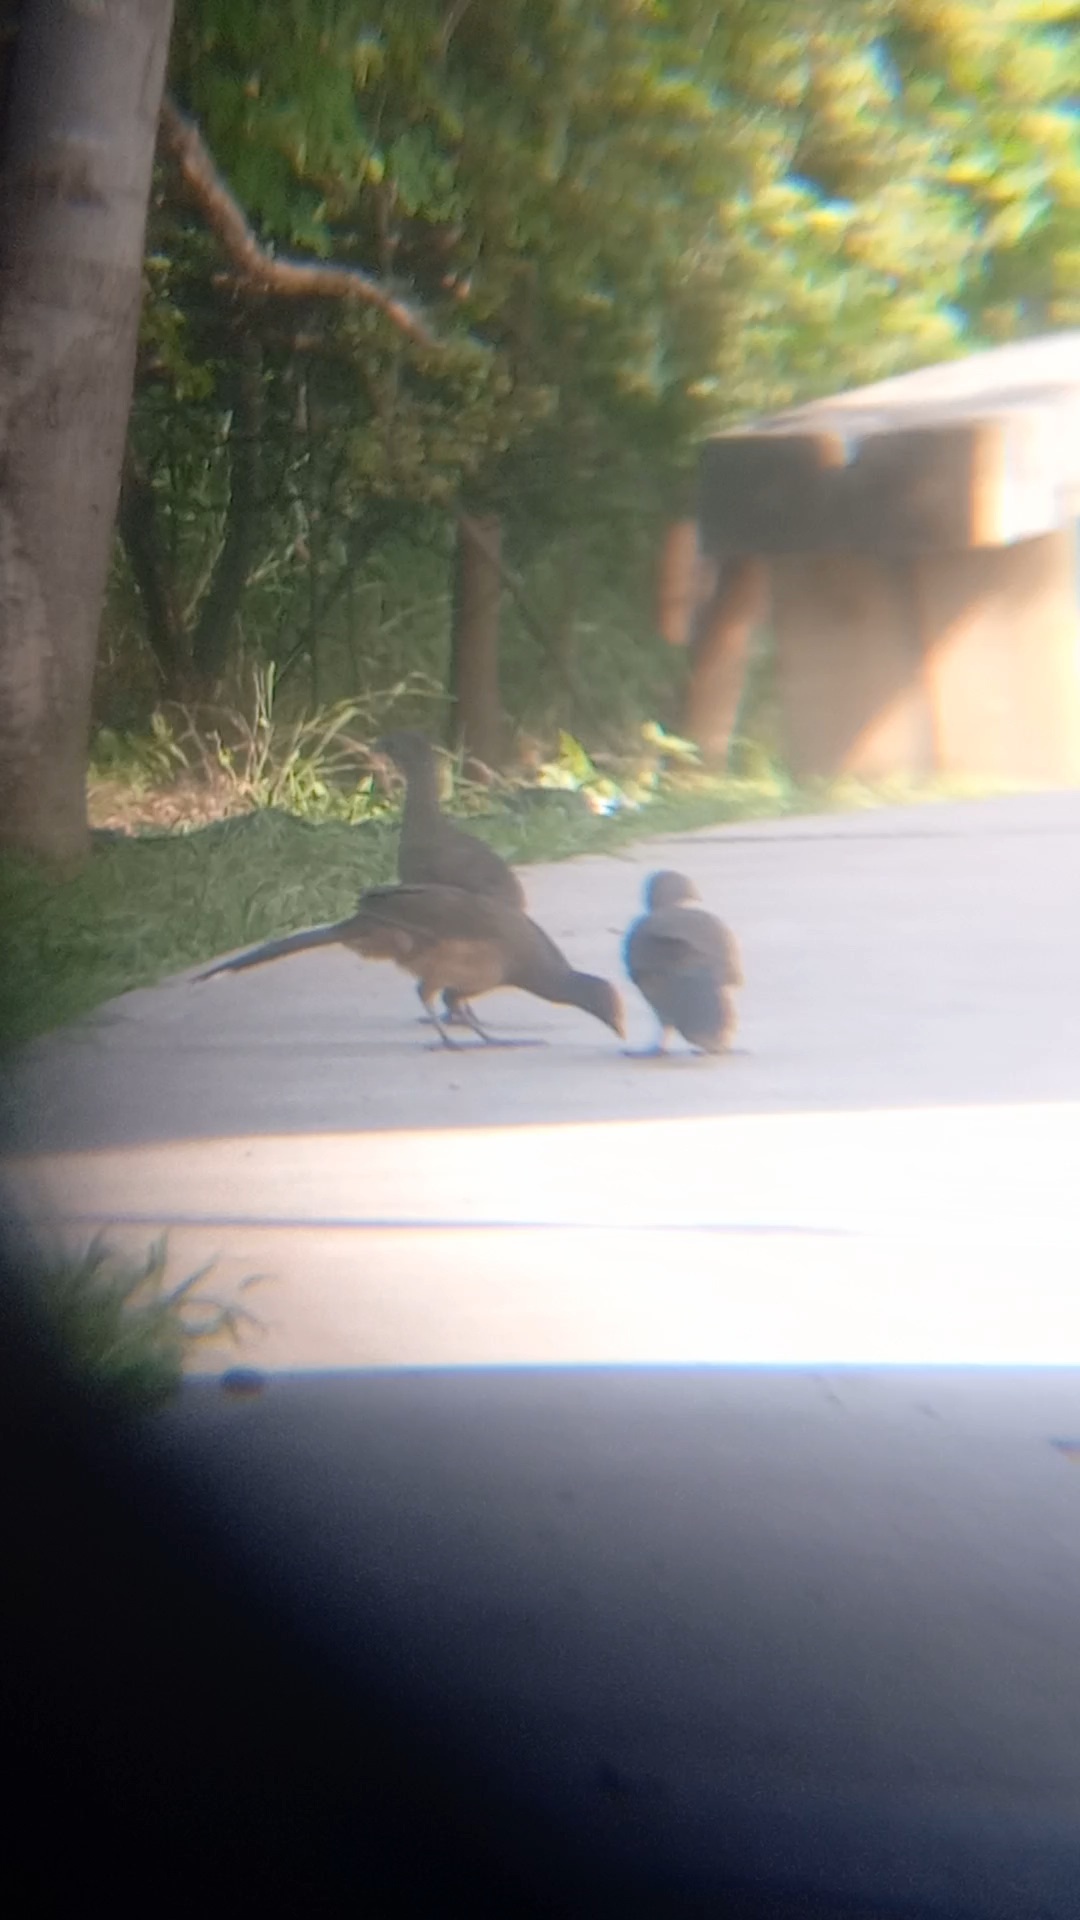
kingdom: Animalia
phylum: Chordata
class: Aves
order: Galliformes
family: Cracidae
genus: Ortalis
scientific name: Ortalis vetula
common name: Plain chachalaca
